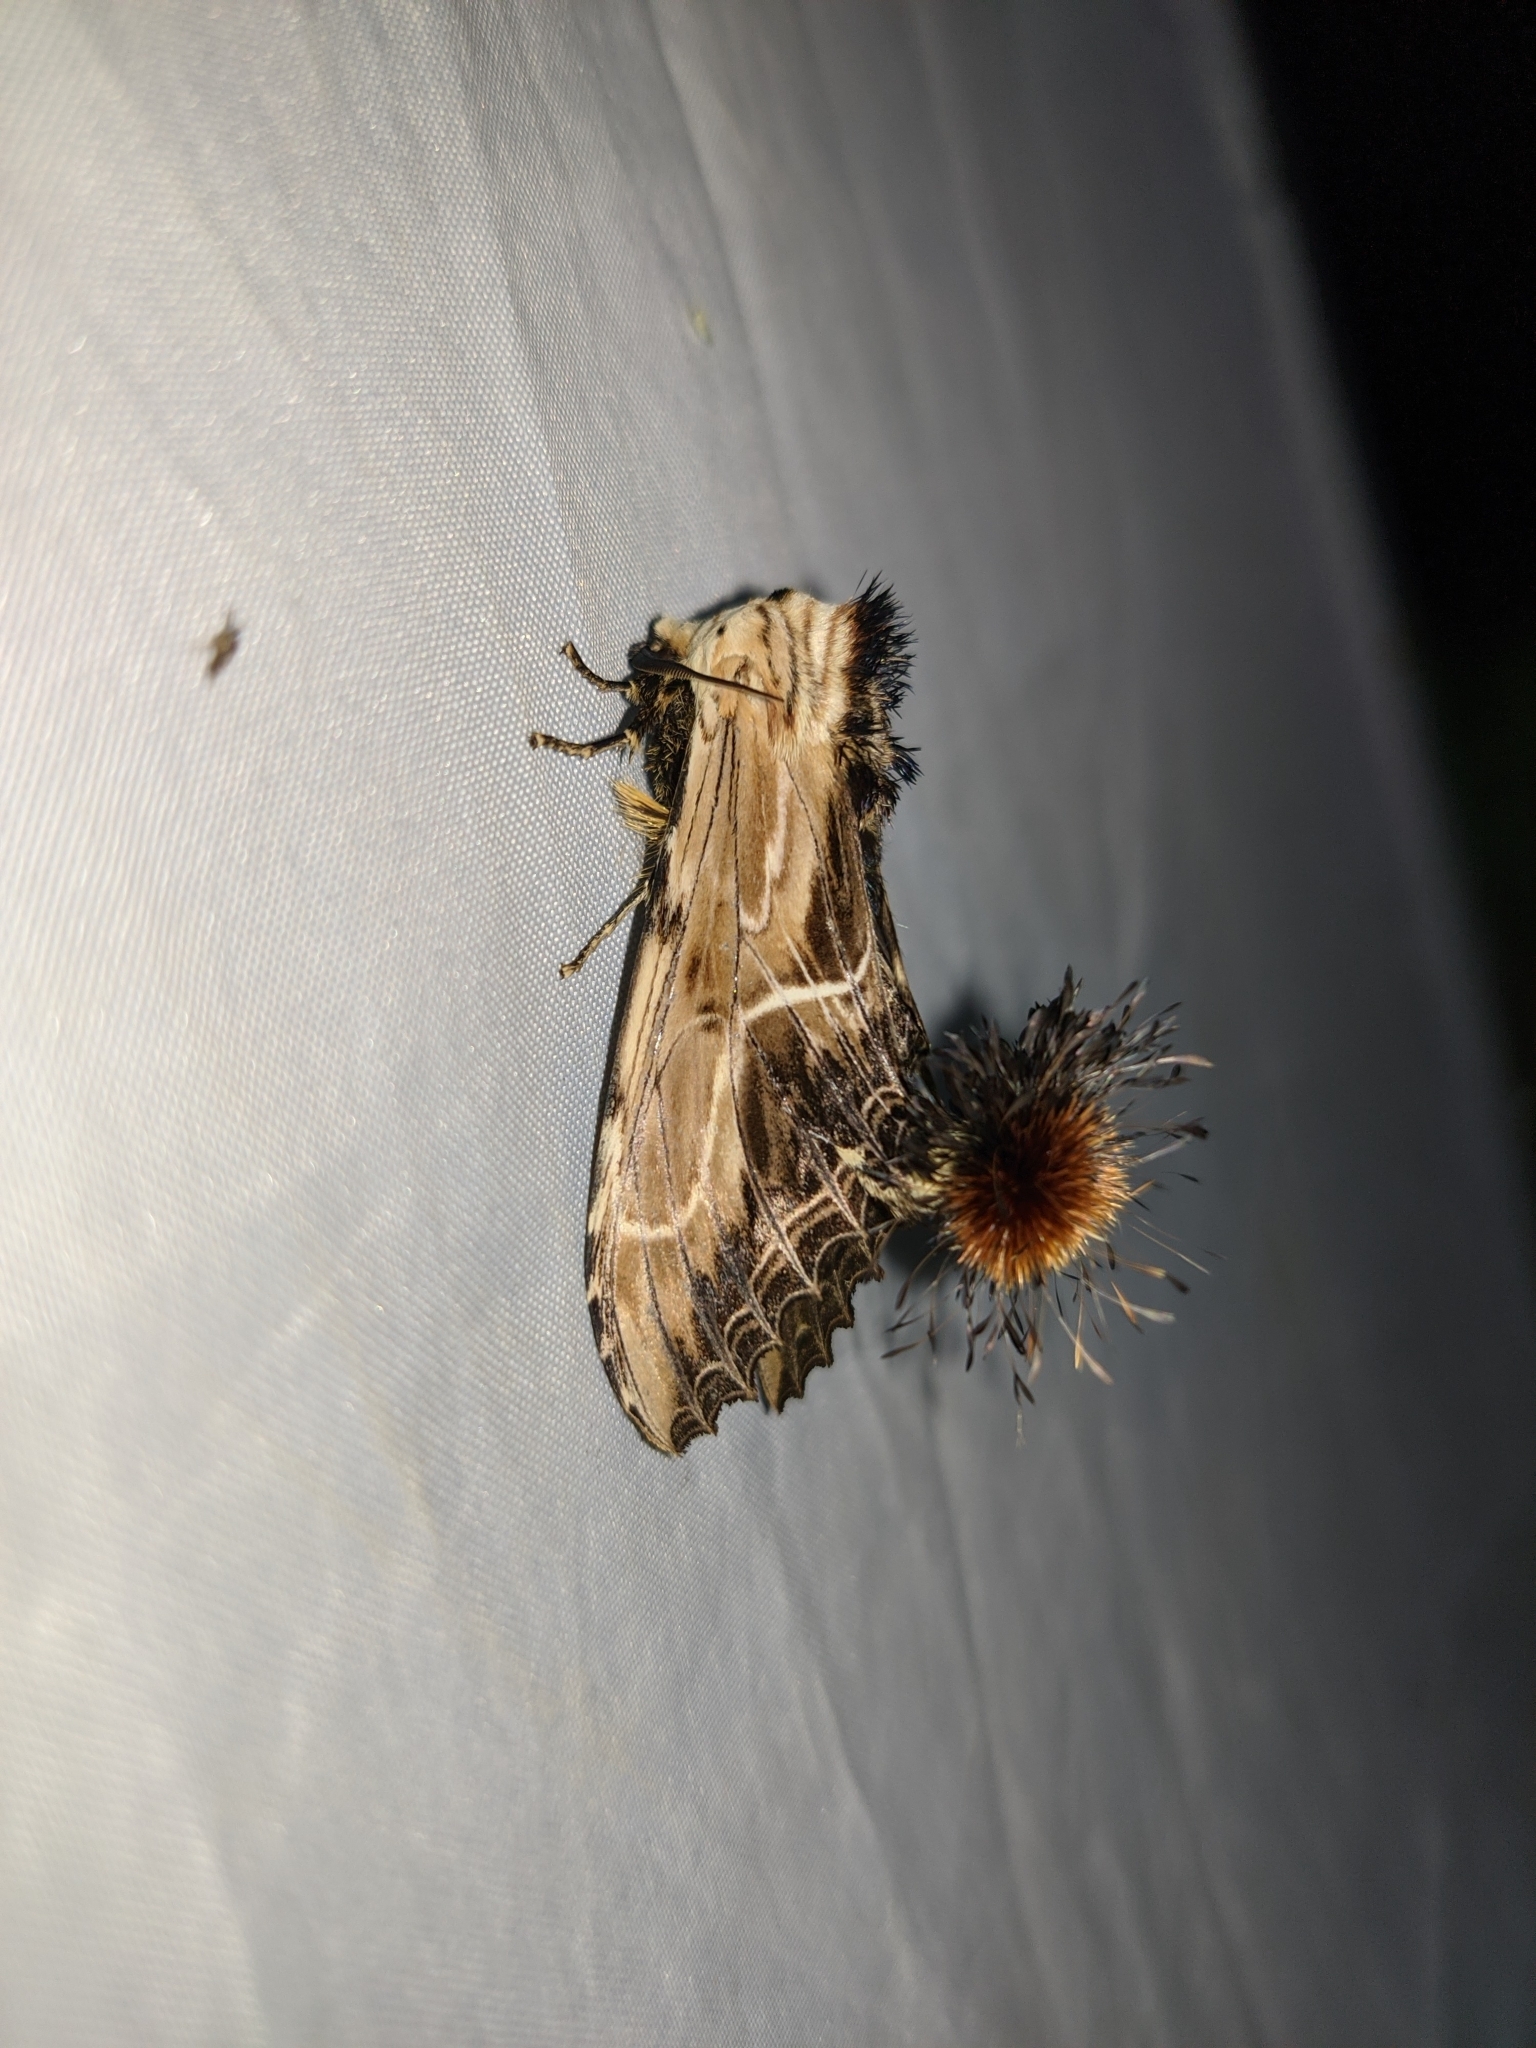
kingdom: Animalia
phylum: Arthropoda
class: Insecta
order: Lepidoptera
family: Notodontidae
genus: Dudusa
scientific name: Dudusa sphingiformis
